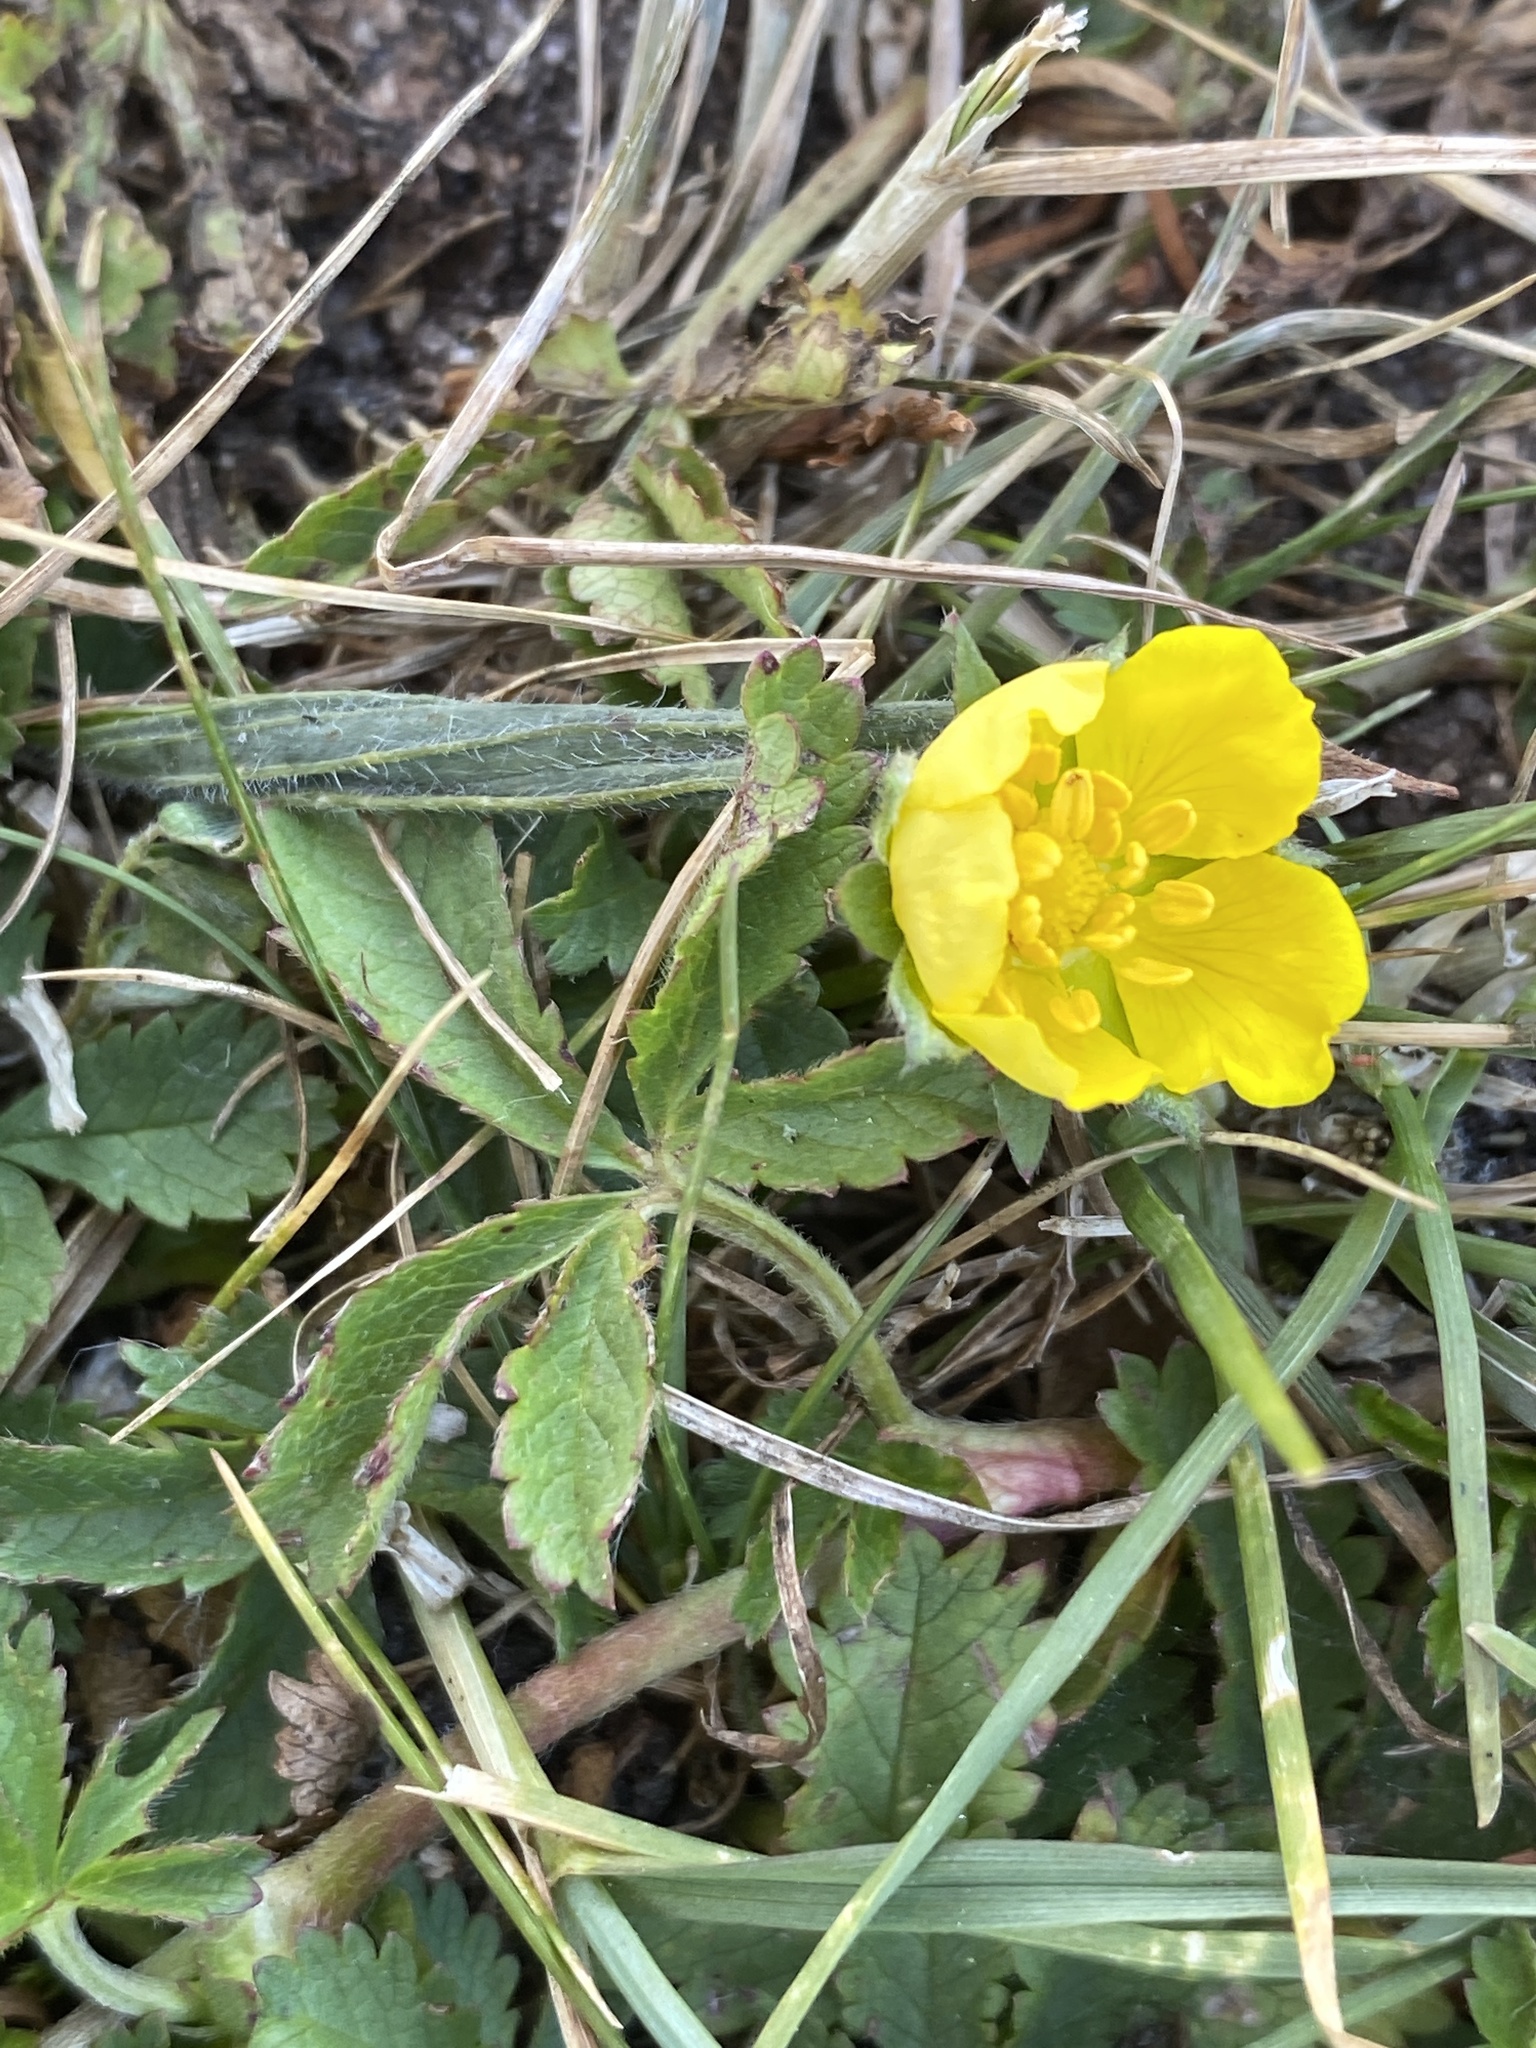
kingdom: Plantae
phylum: Tracheophyta
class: Magnoliopsida
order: Rosales
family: Rosaceae
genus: Potentilla
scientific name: Potentilla reptans
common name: Creeping cinquefoil
